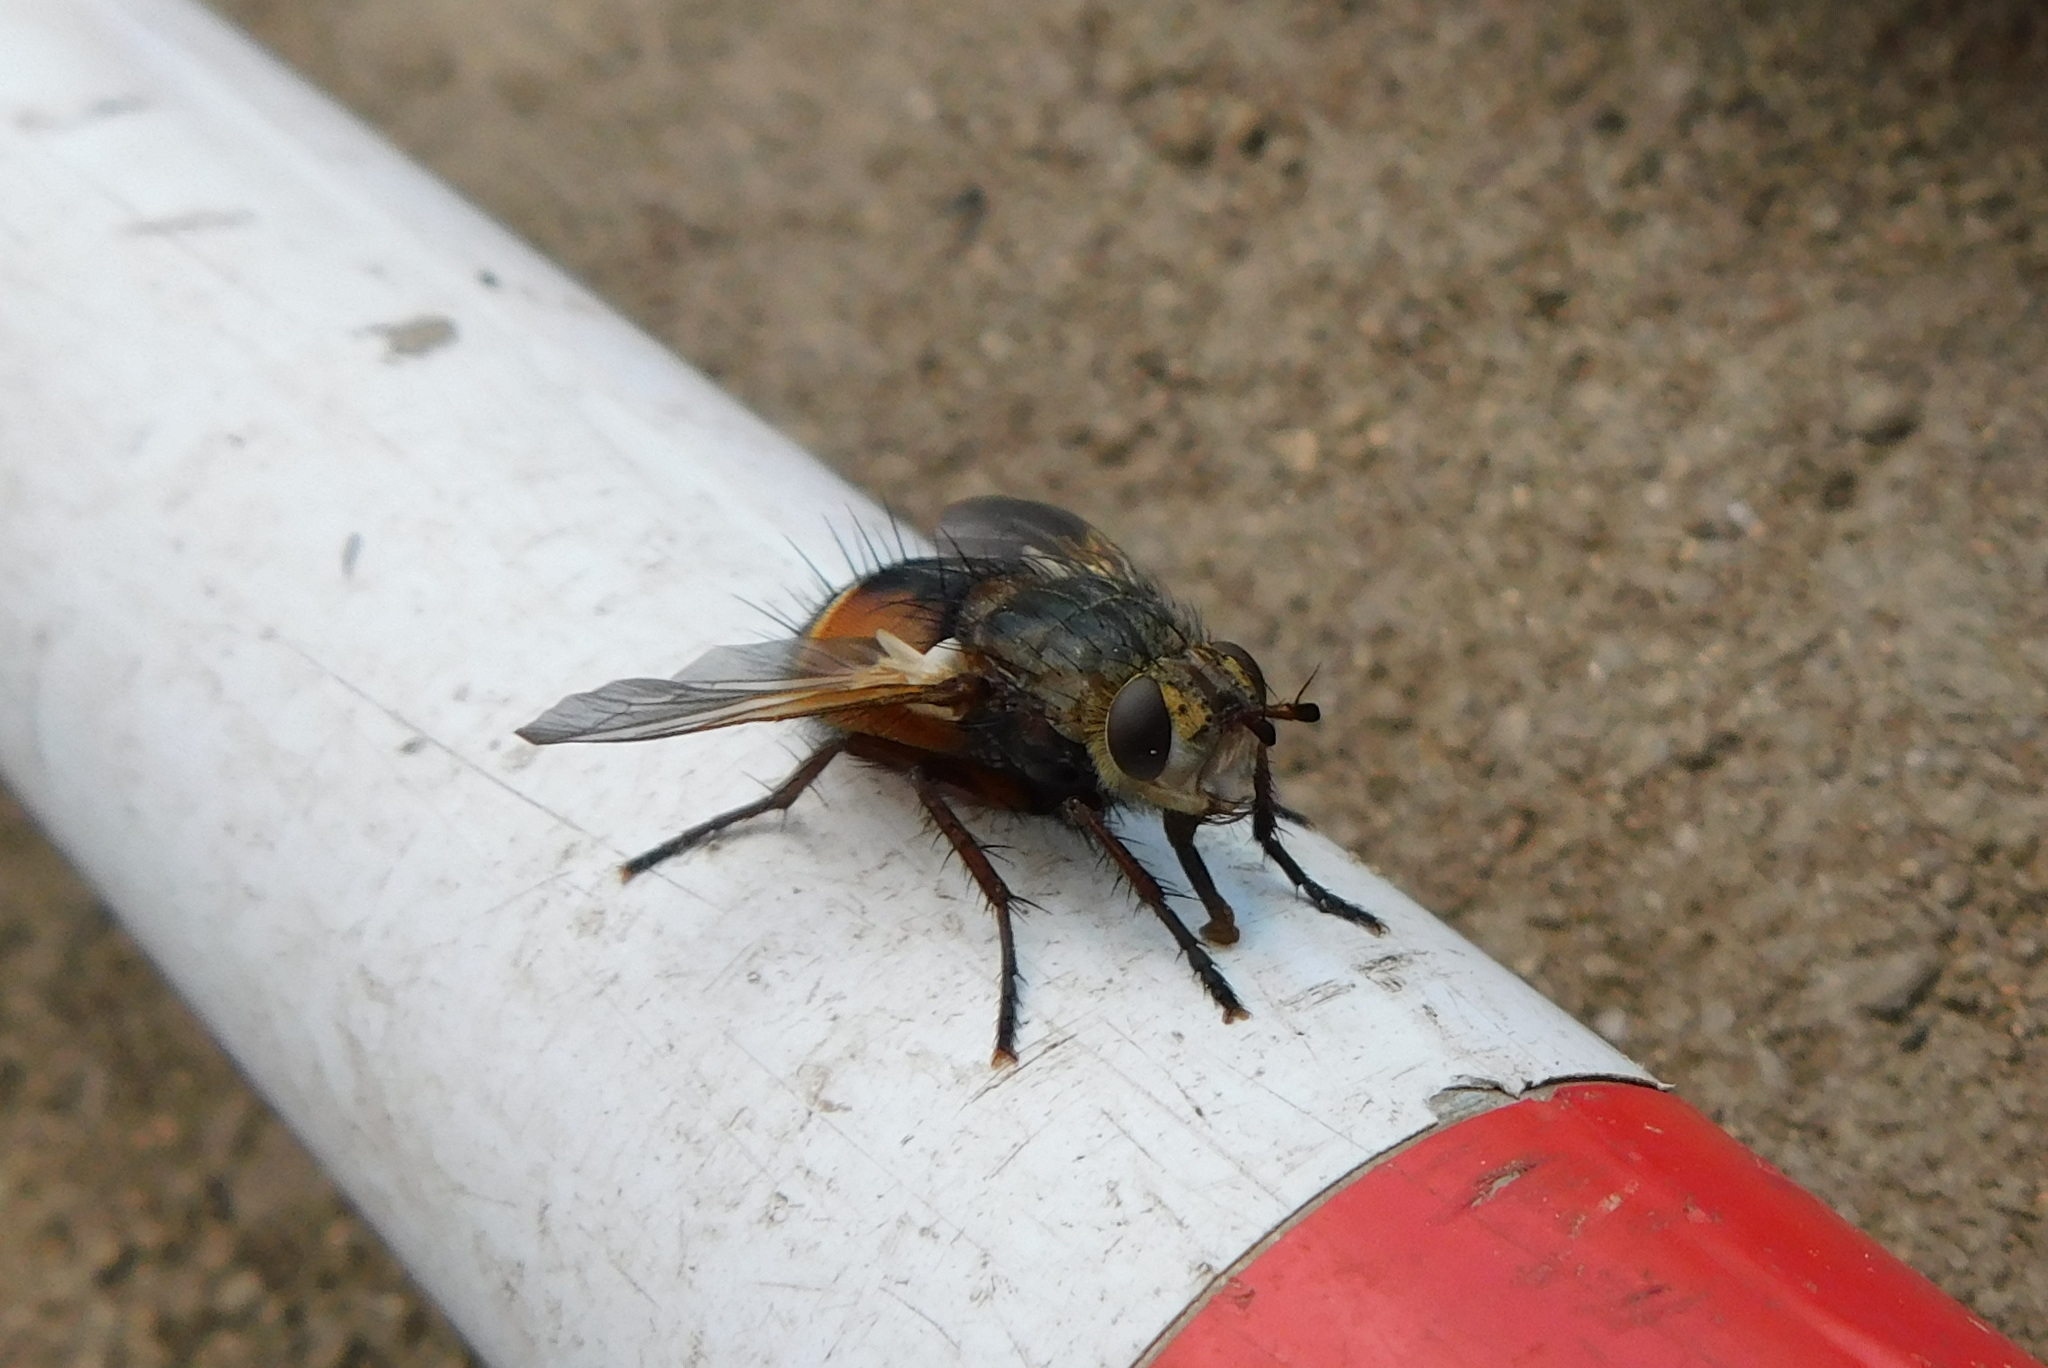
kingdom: Animalia
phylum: Arthropoda
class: Insecta
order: Diptera
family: Tachinidae
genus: Tachina
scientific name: Tachina fera
